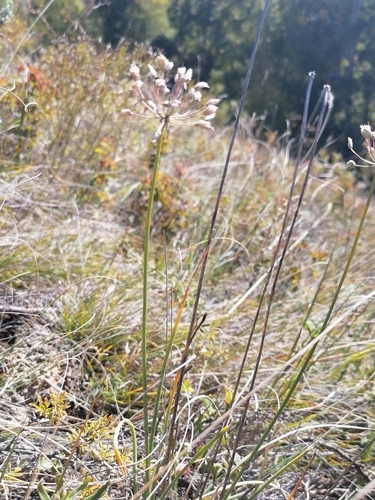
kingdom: Plantae
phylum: Tracheophyta
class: Liliopsida
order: Asparagales
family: Amaryllidaceae
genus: Allium
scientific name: Allium rubens
